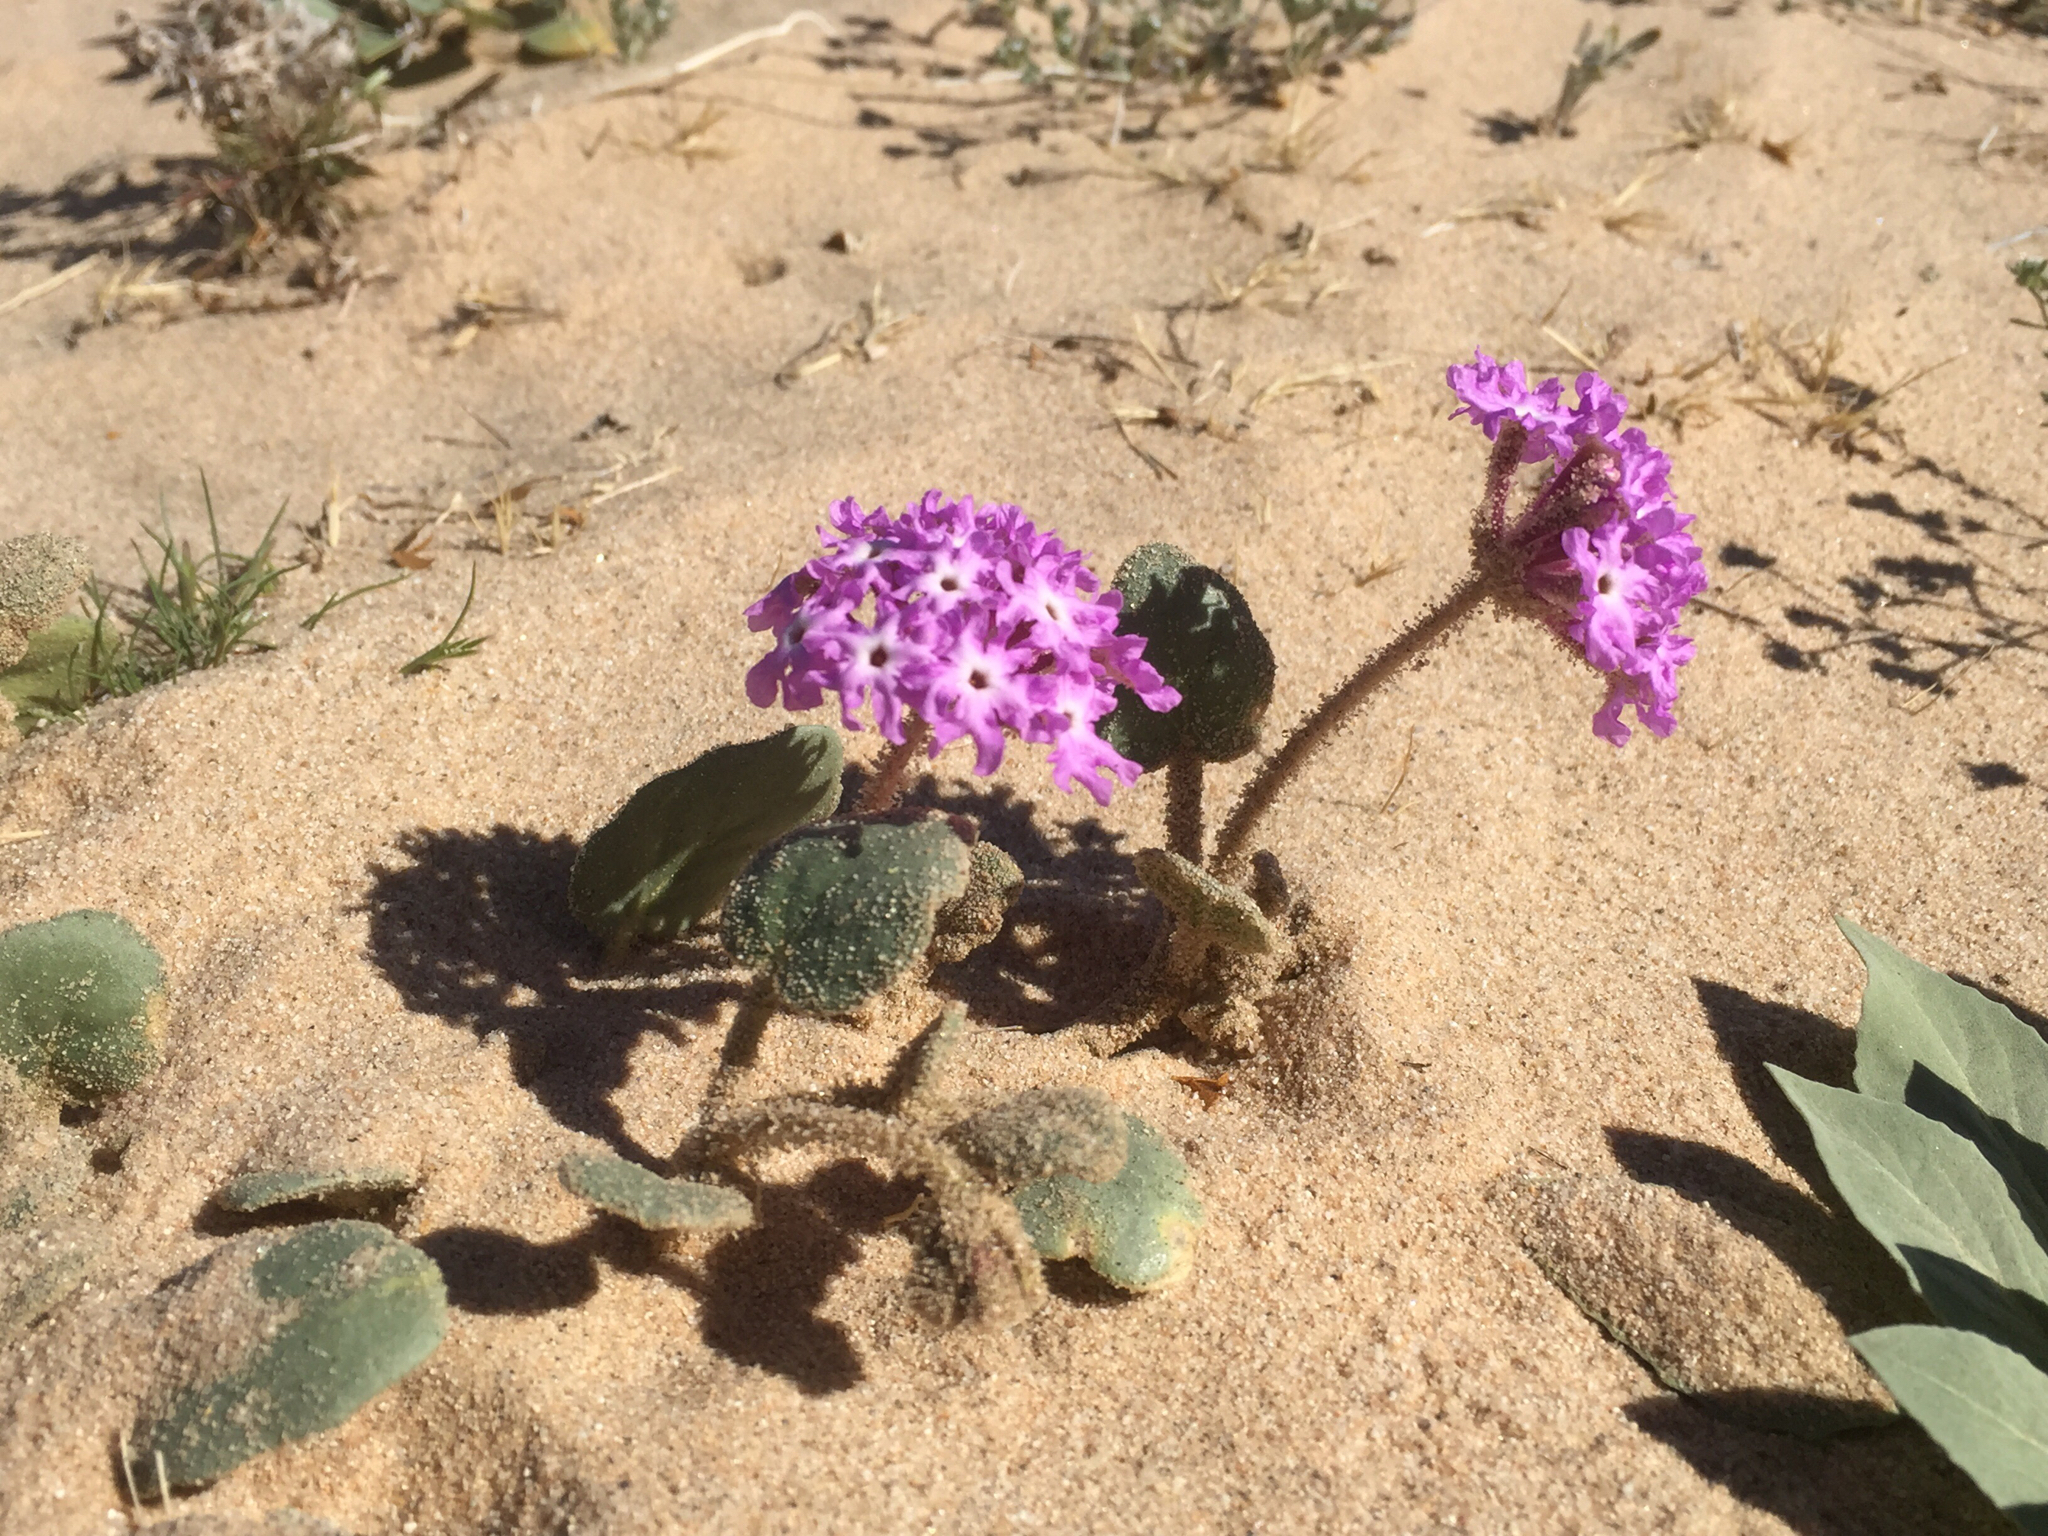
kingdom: Plantae
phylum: Tracheophyta
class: Magnoliopsida
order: Caryophyllales
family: Nyctaginaceae
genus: Abronia
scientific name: Abronia villosa
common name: Desert sand-verbena
